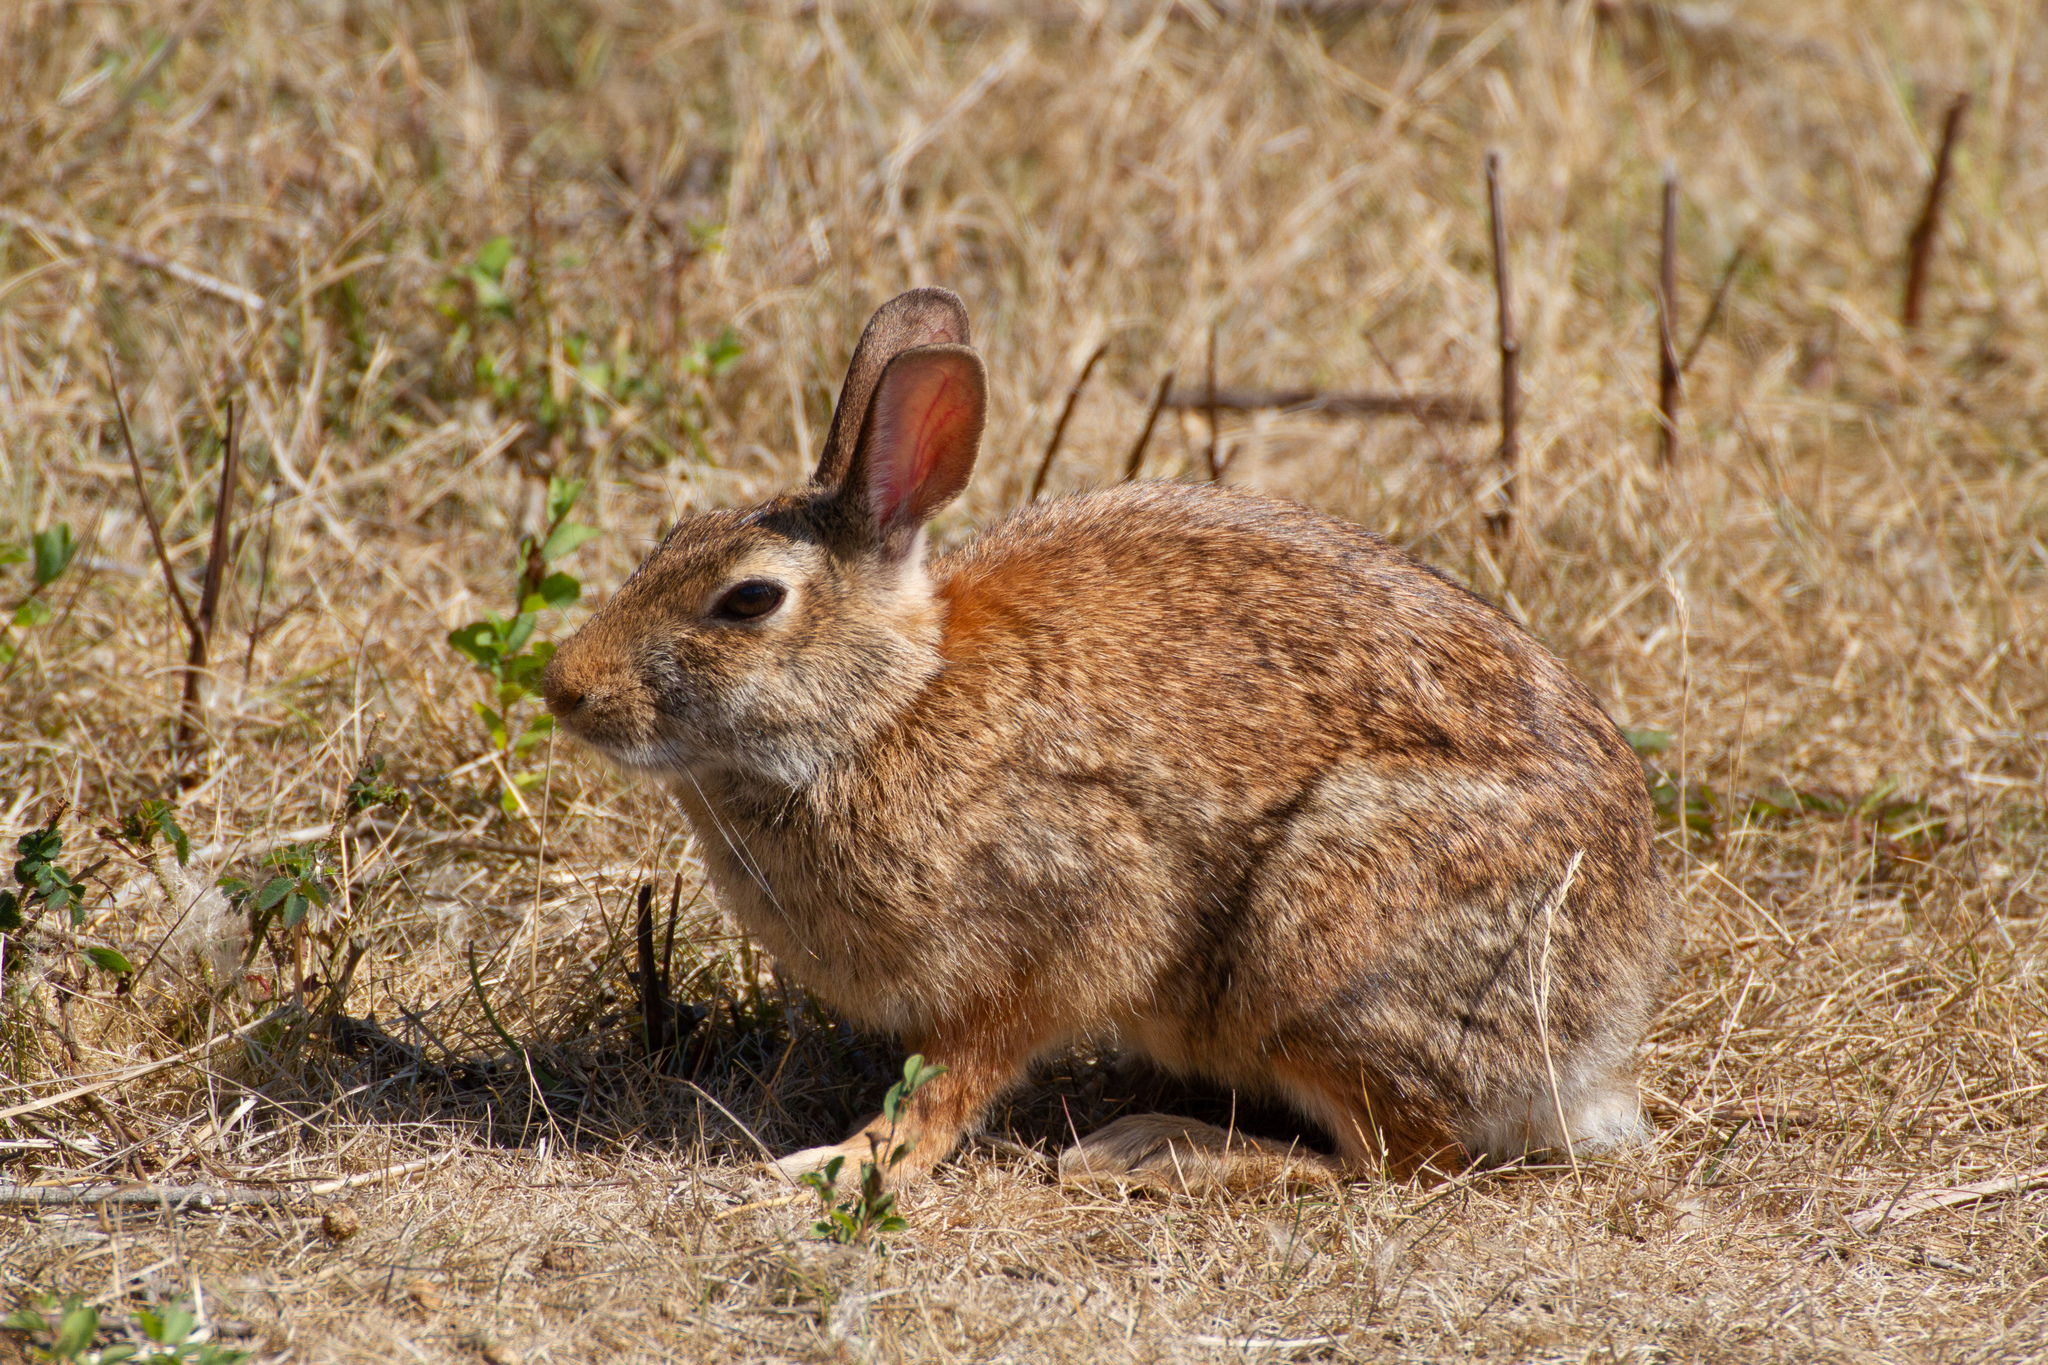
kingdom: Animalia
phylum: Chordata
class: Mammalia
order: Lagomorpha
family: Leporidae
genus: Sylvilagus
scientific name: Sylvilagus floridanus
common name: Eastern cottontail
